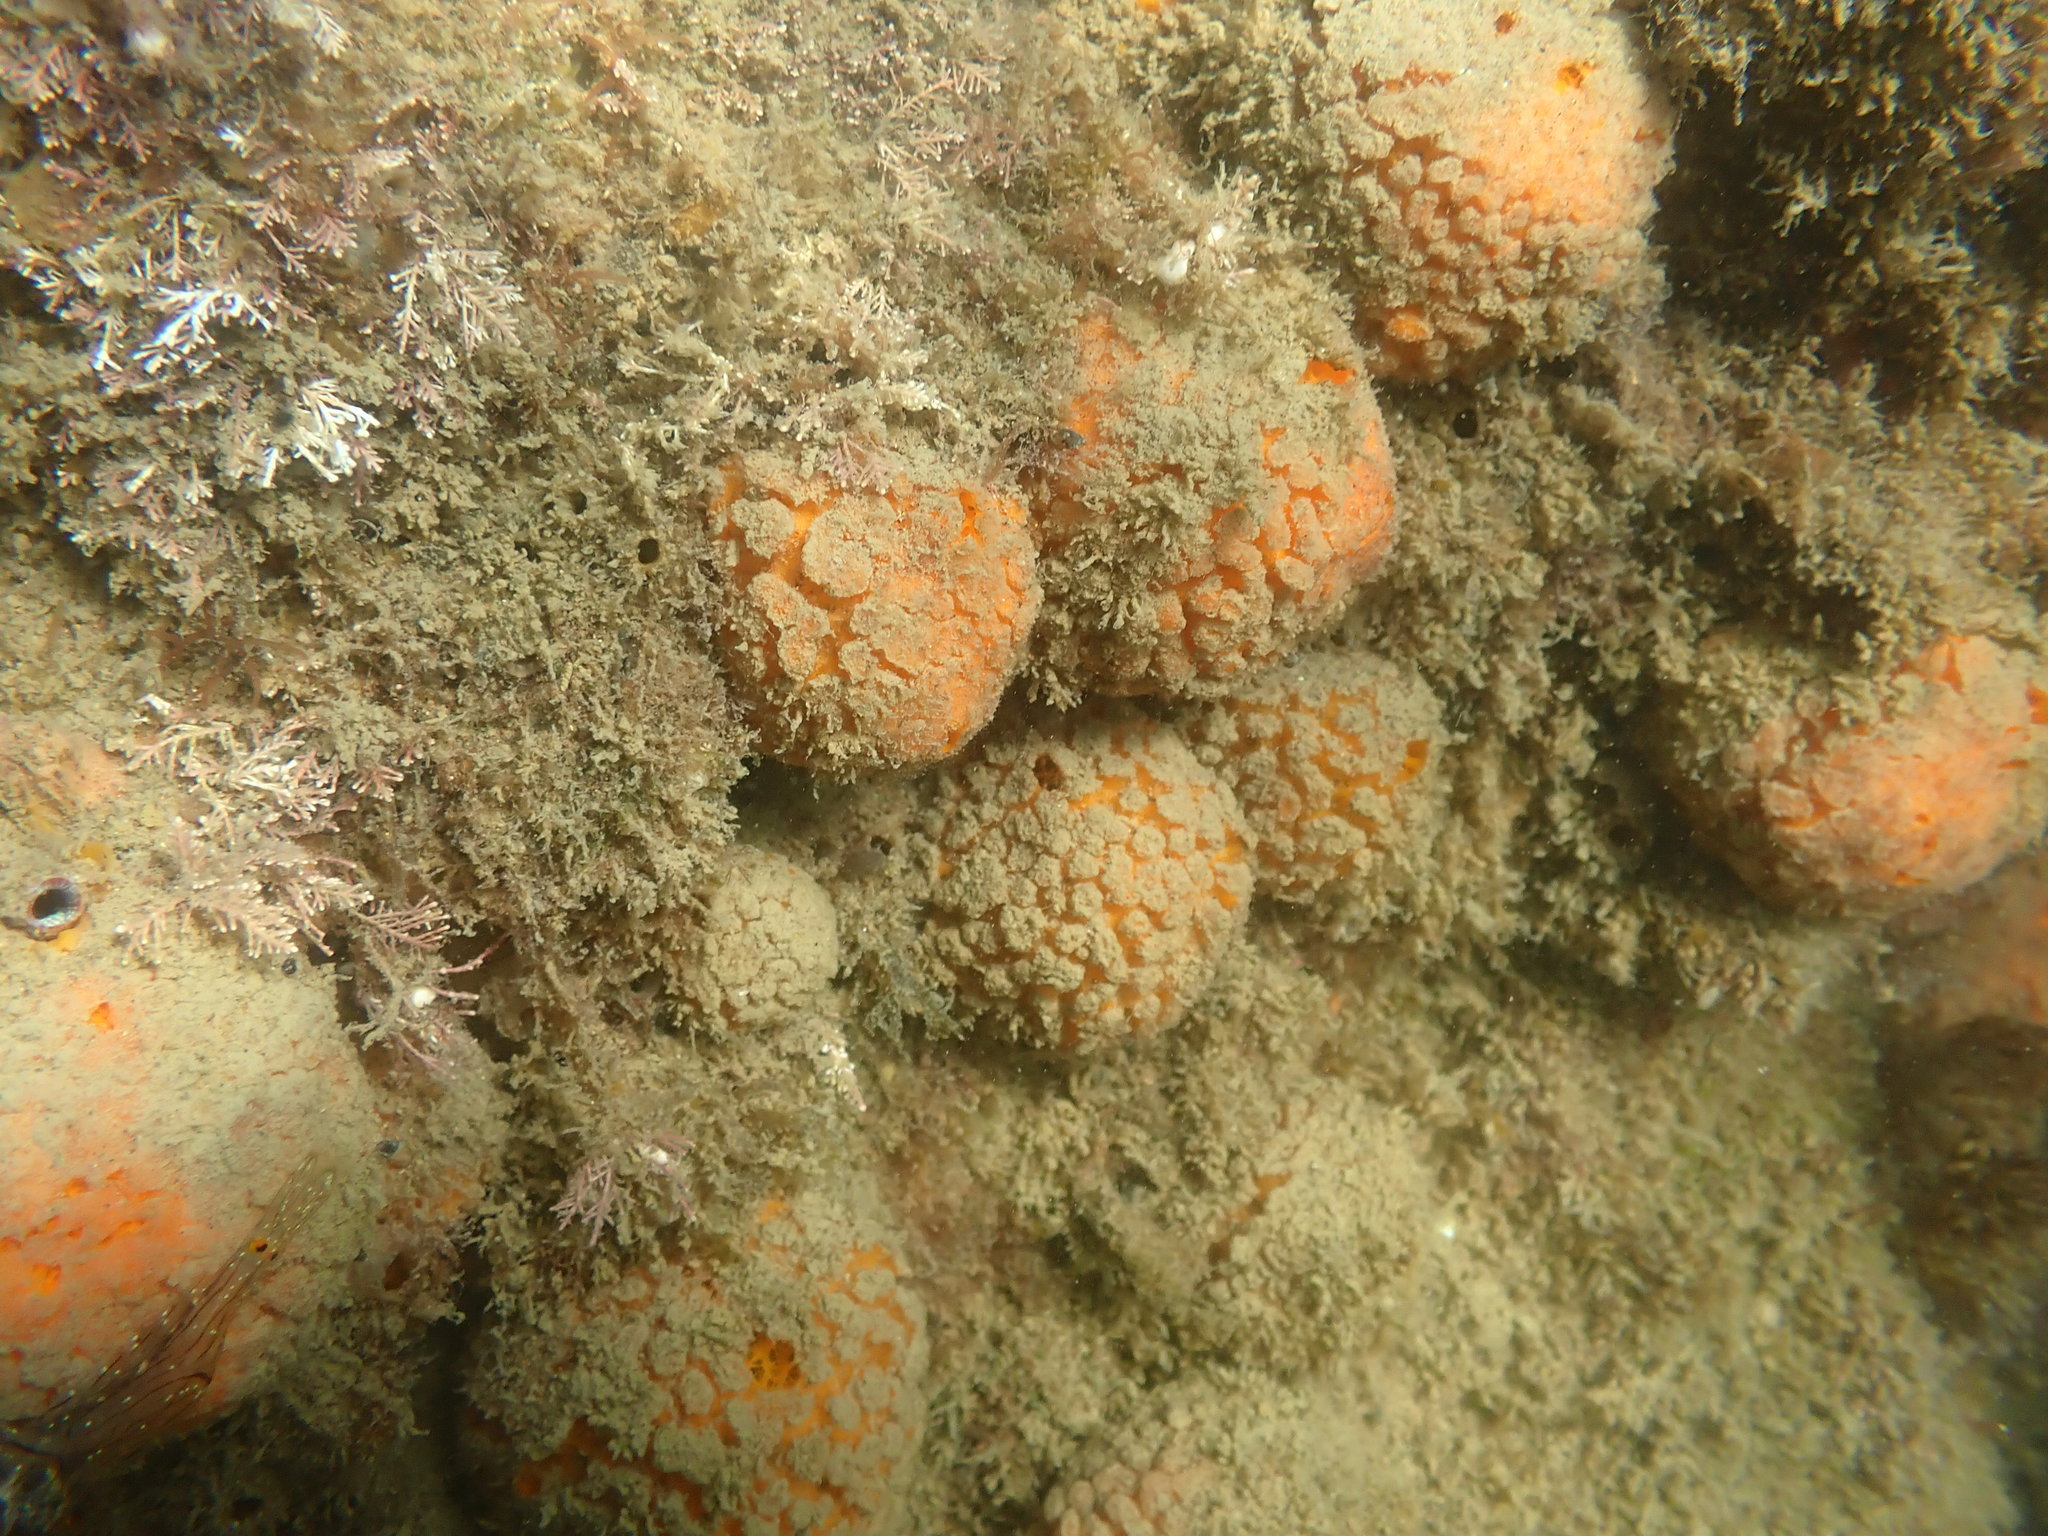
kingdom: Animalia
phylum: Porifera
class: Demospongiae
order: Tethyida
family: Tethyidae
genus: Tethya
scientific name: Tethya burtoni
